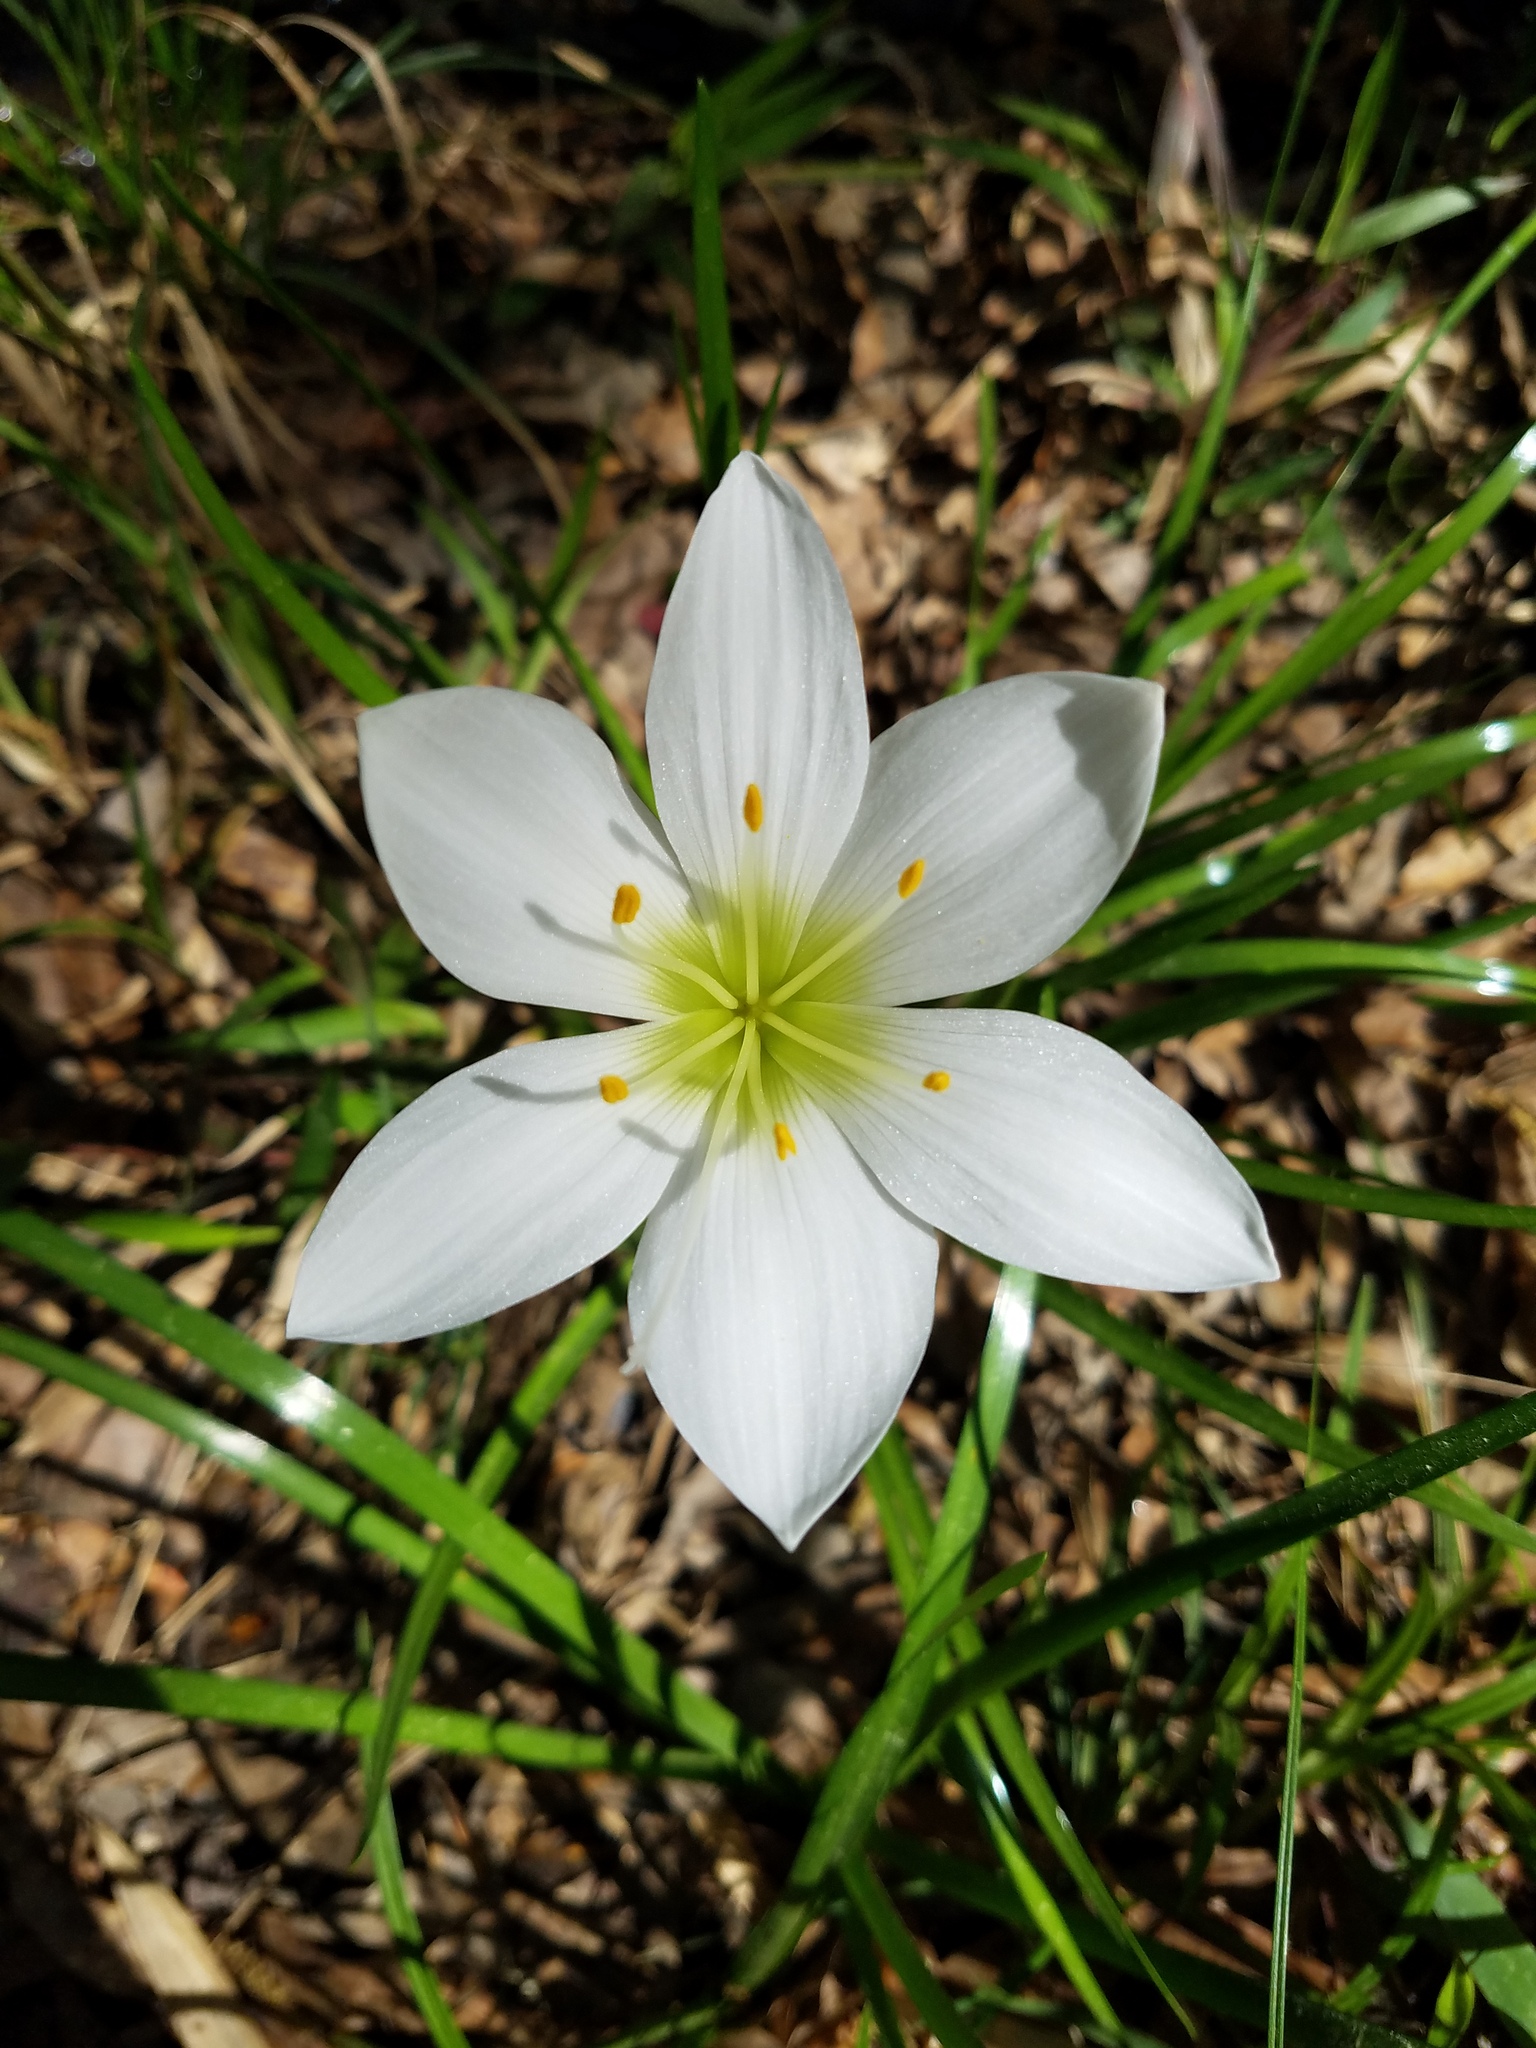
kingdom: Plantae
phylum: Tracheophyta
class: Liliopsida
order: Asparagales
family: Amaryllidaceae
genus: Zephyranthes
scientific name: Zephyranthes atamasco
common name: Atamasco lily
